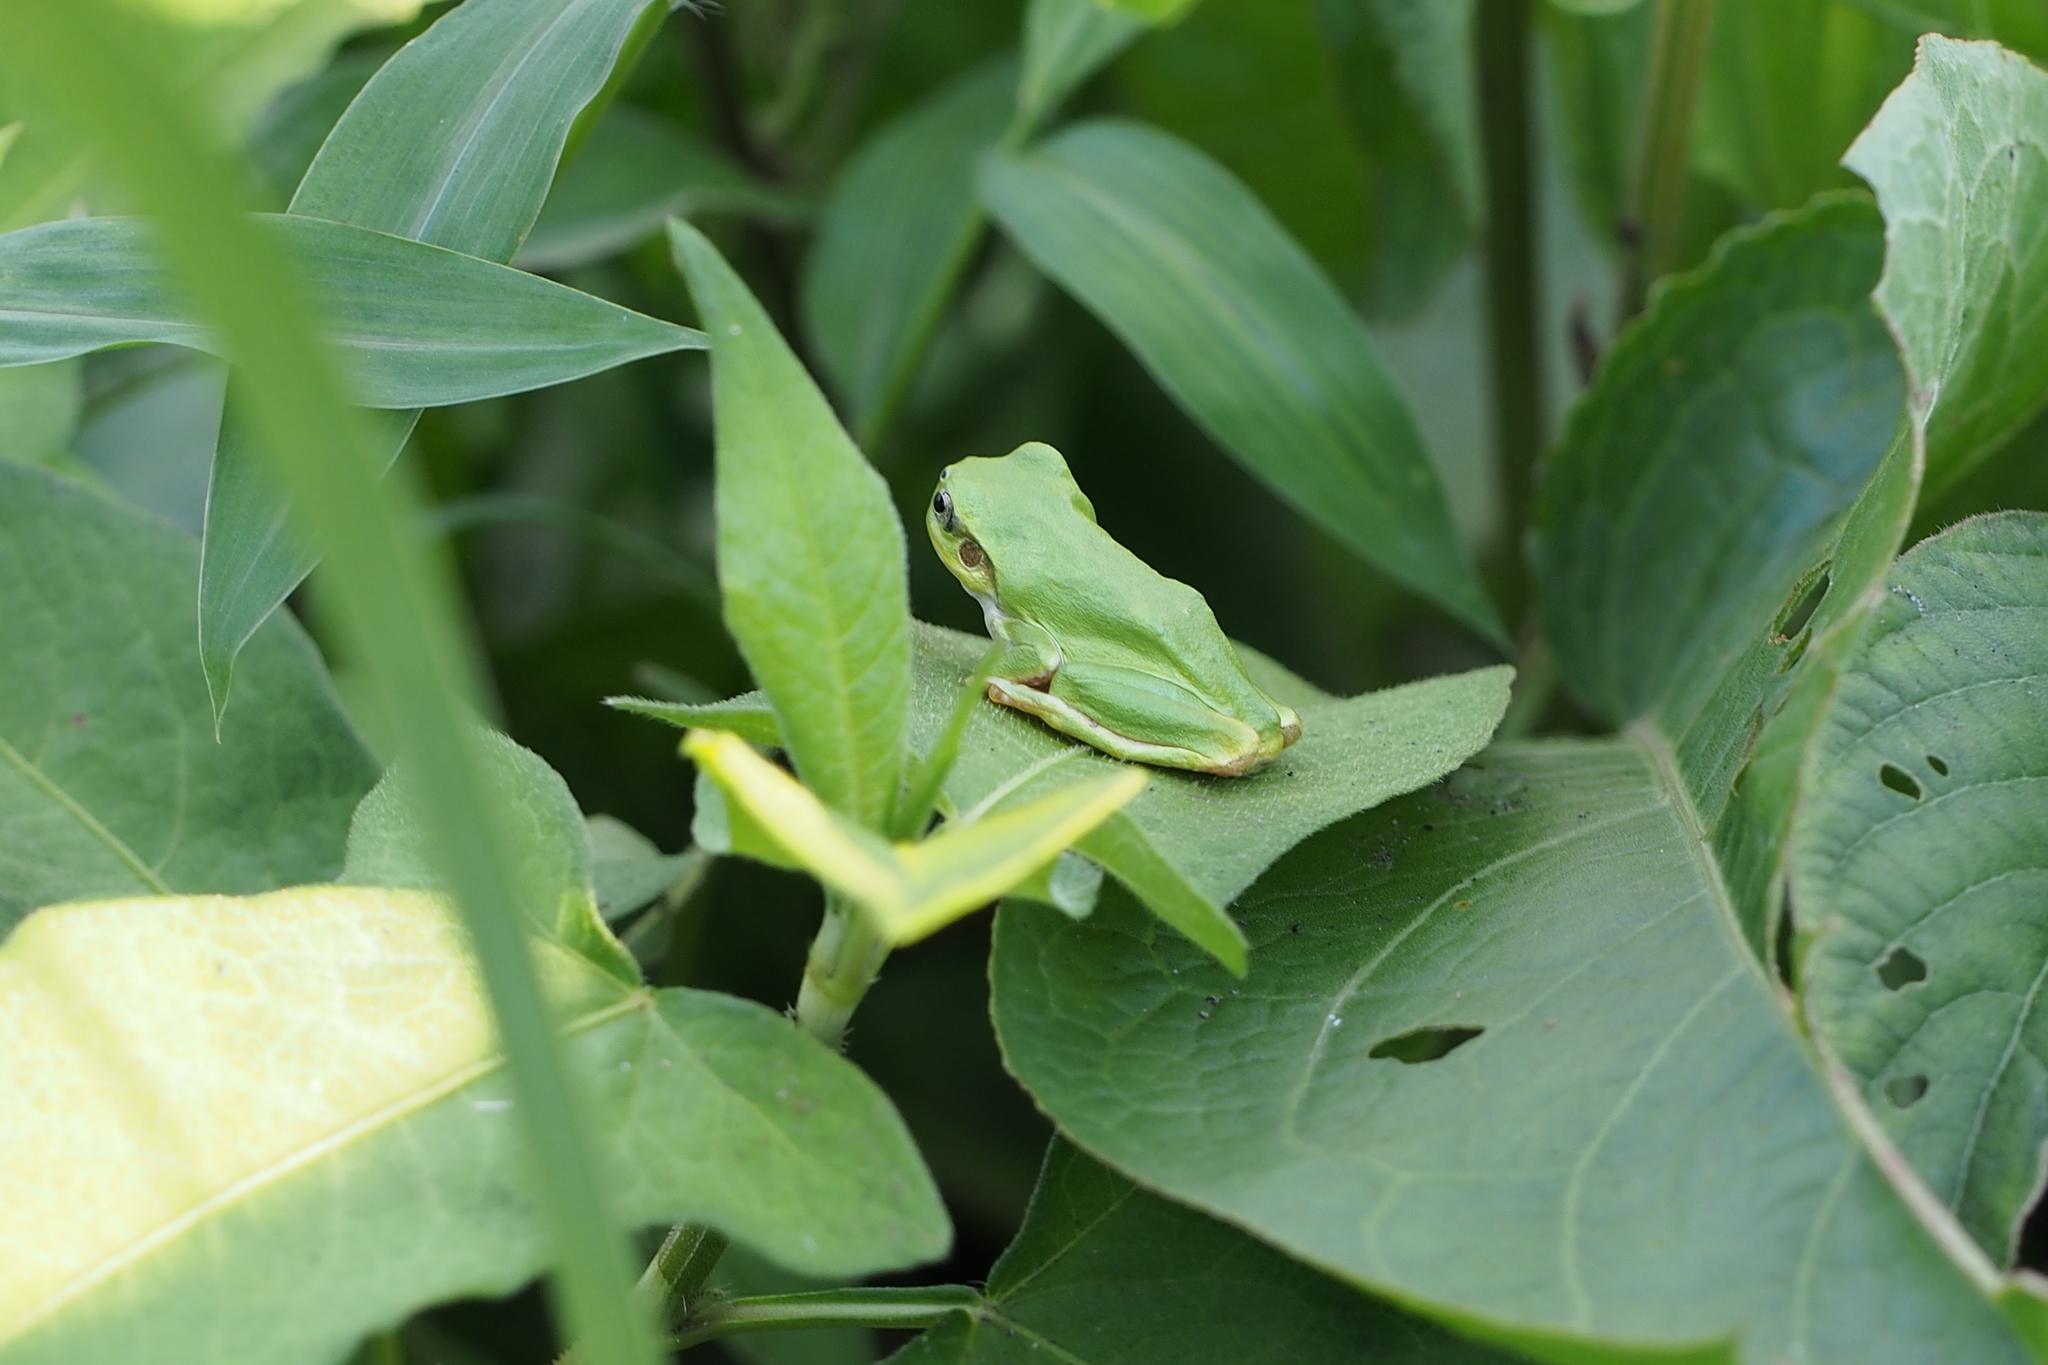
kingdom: Animalia
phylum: Chordata
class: Amphibia
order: Anura
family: Hylidae
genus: Dryophytes
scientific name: Dryophytes japonicus
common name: Japanese treefrog
